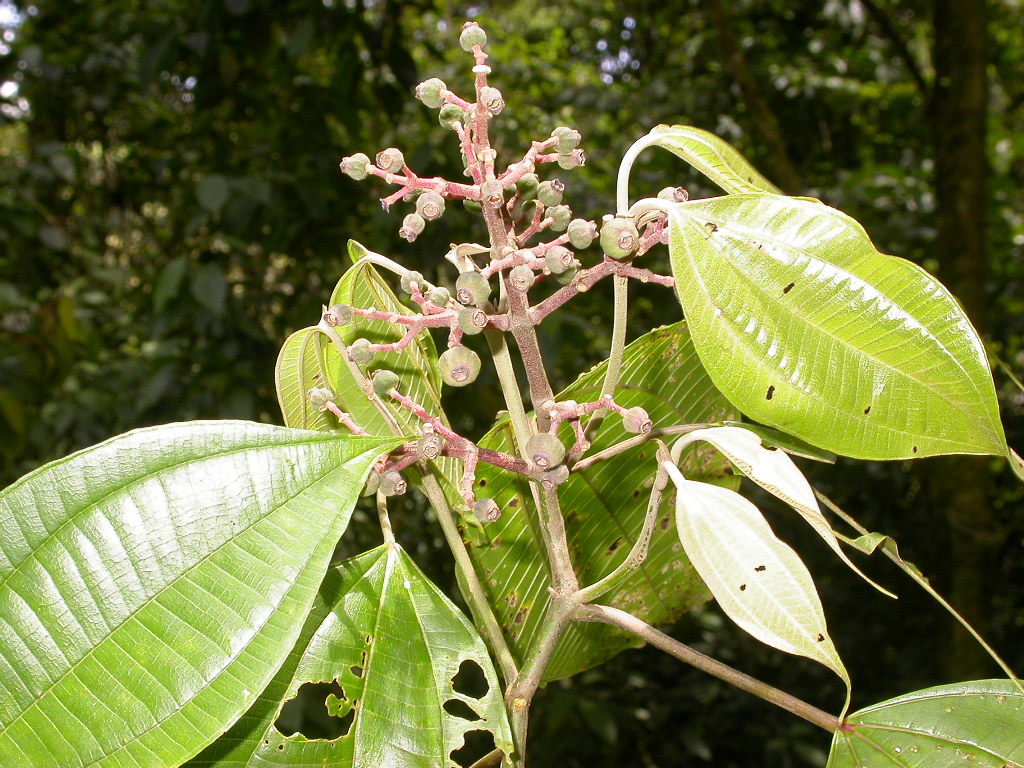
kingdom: Plantae
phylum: Tracheophyta
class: Magnoliopsida
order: Myrtales
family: Melastomataceae
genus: Miconia
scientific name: Miconia donaeana
